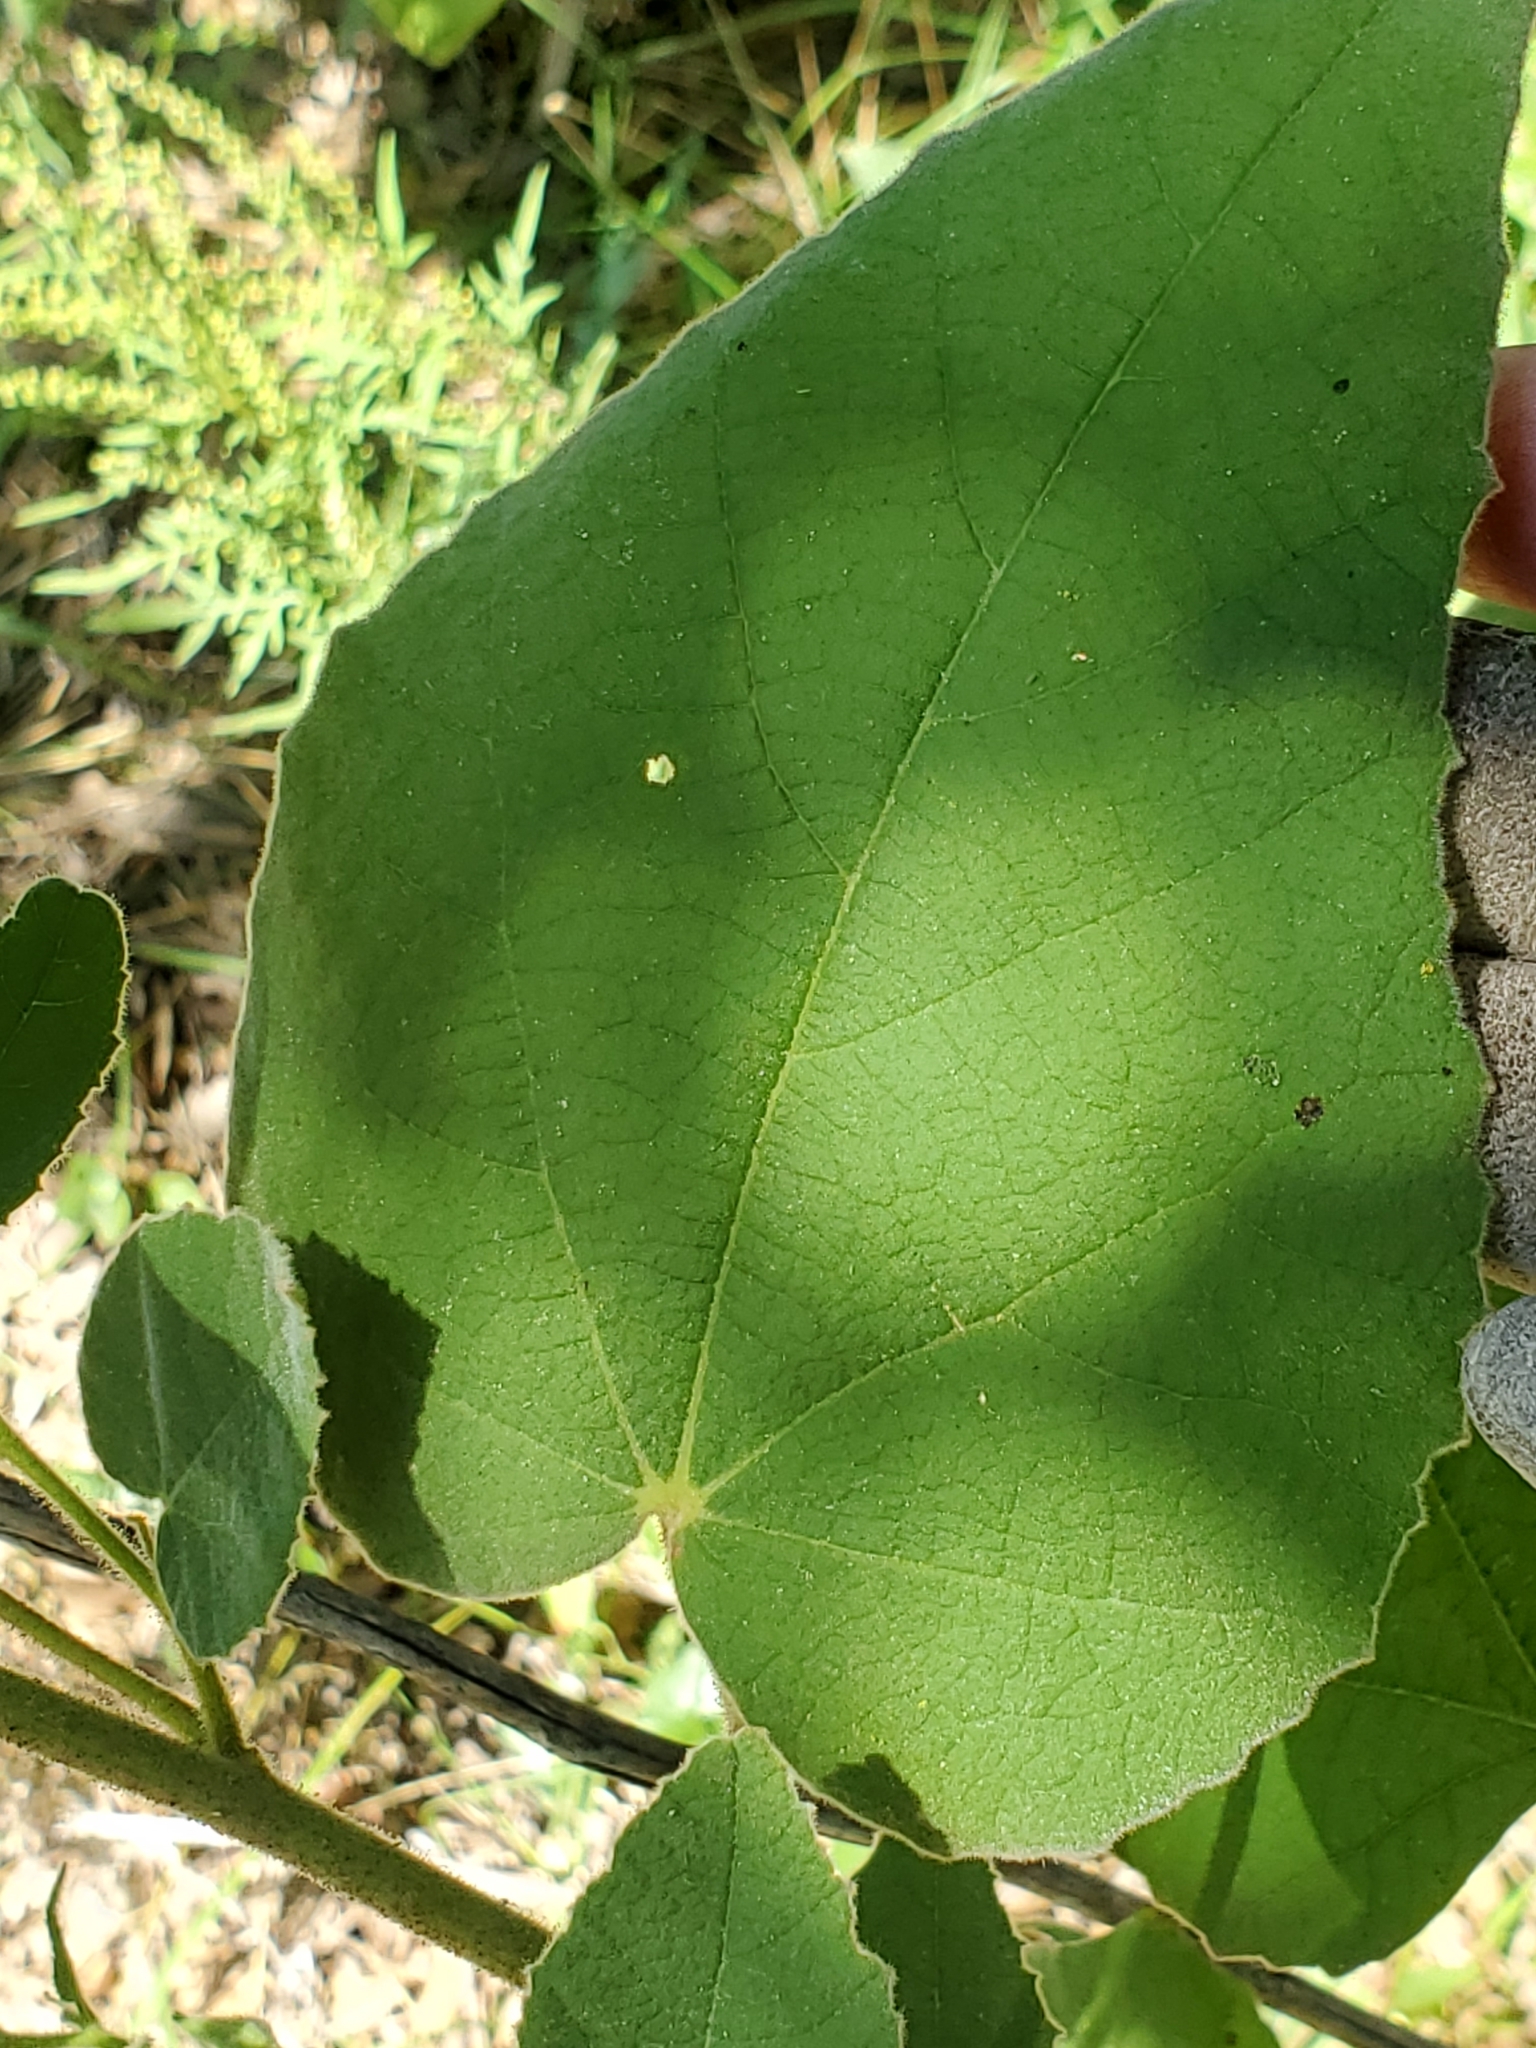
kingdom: Plantae
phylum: Tracheophyta
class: Magnoliopsida
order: Malvales
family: Malvaceae
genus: Allowissadula
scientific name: Allowissadula holosericea
